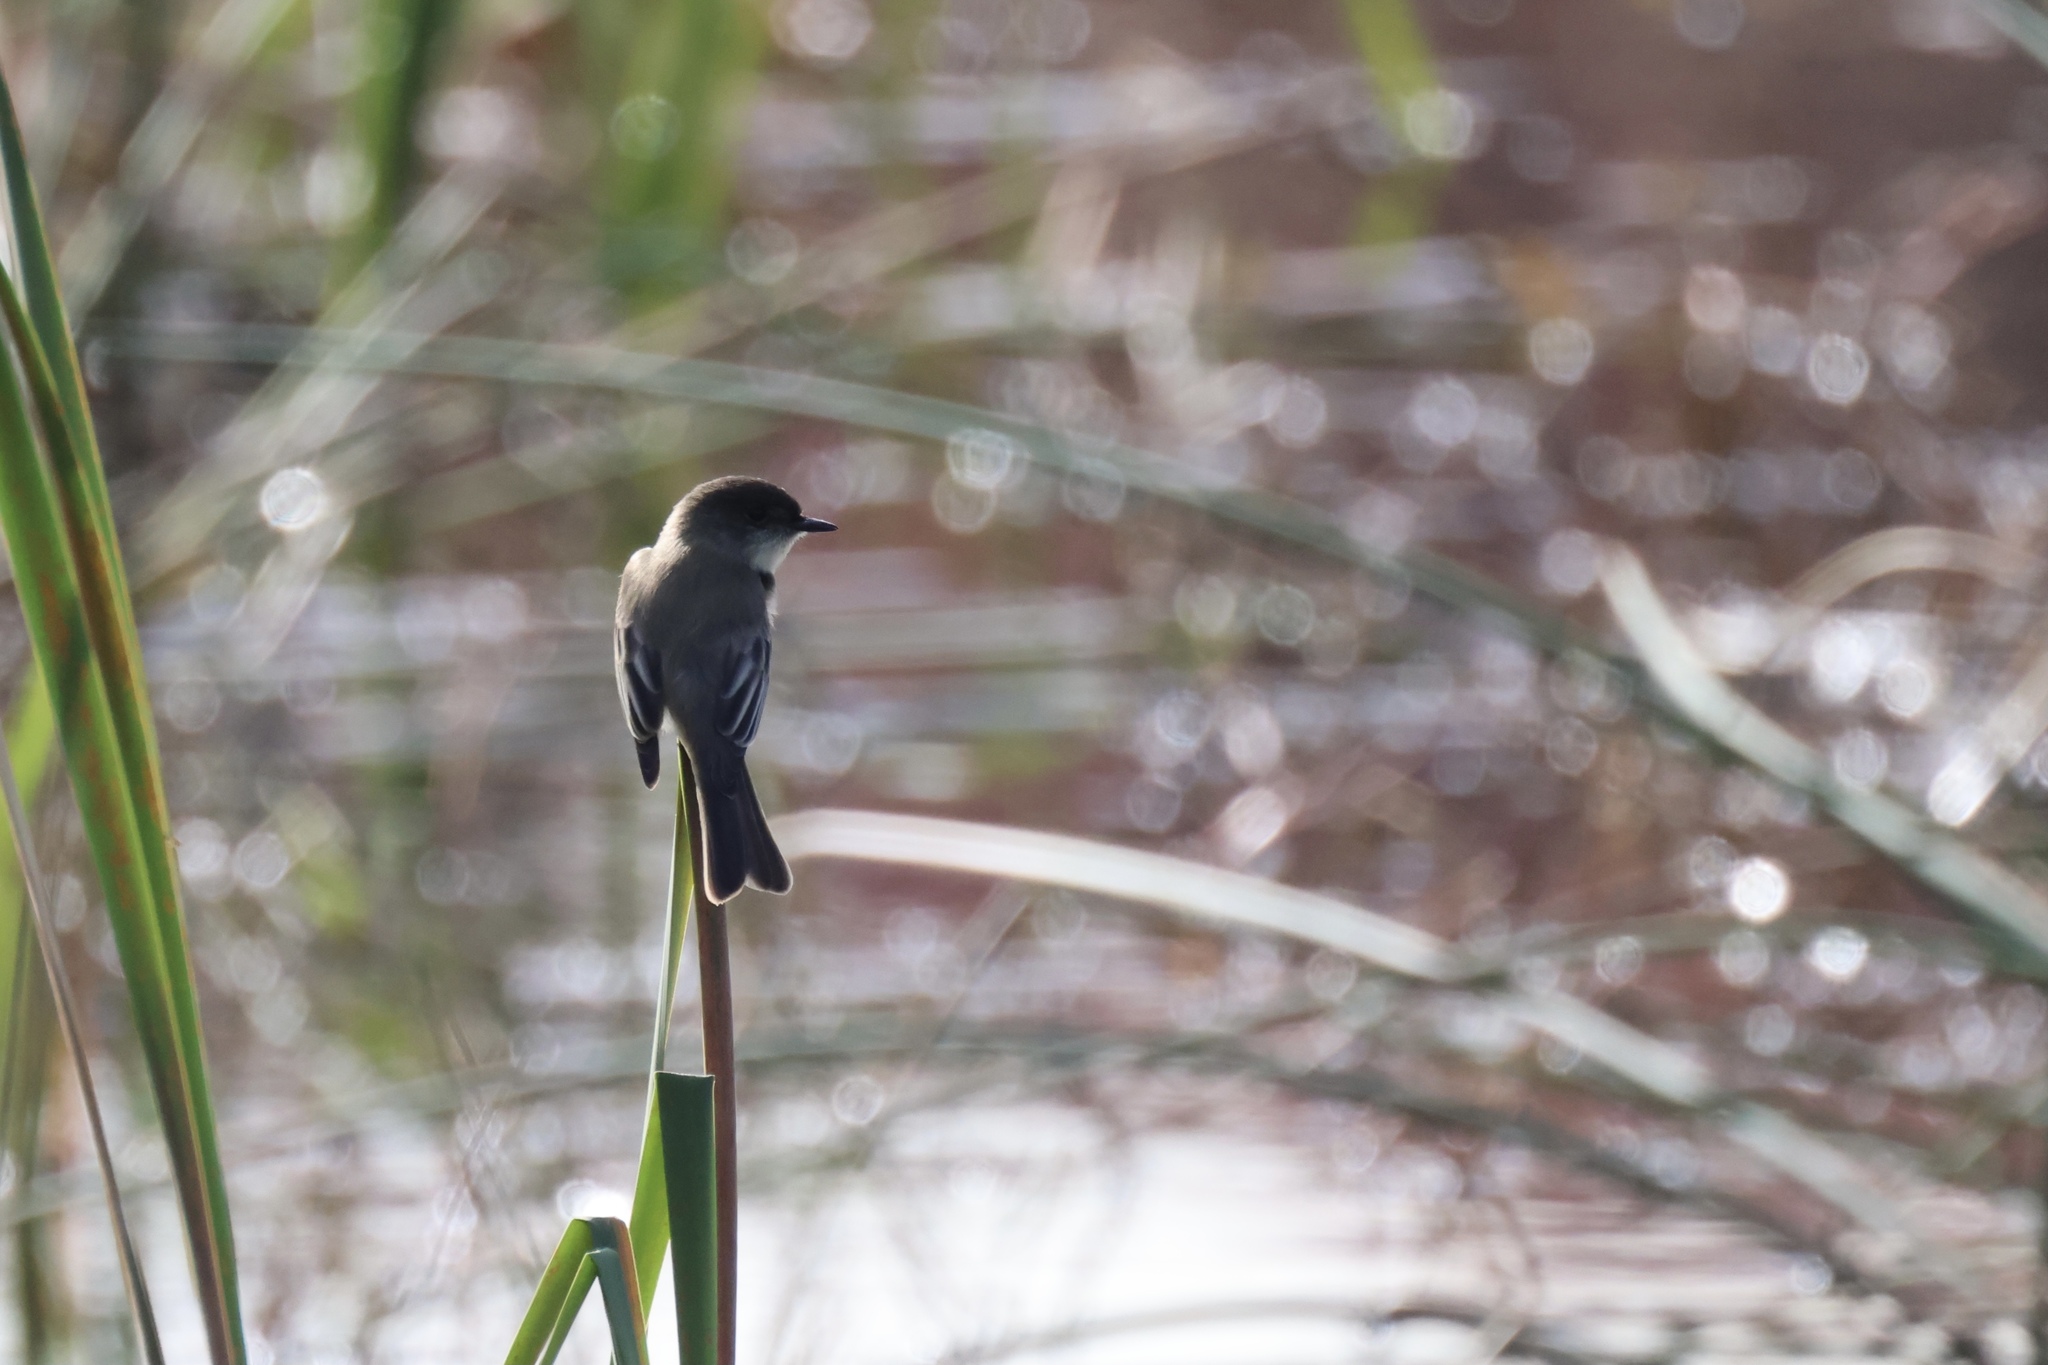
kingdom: Animalia
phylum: Chordata
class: Aves
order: Passeriformes
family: Tyrannidae
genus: Sayornis
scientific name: Sayornis phoebe
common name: Eastern phoebe
